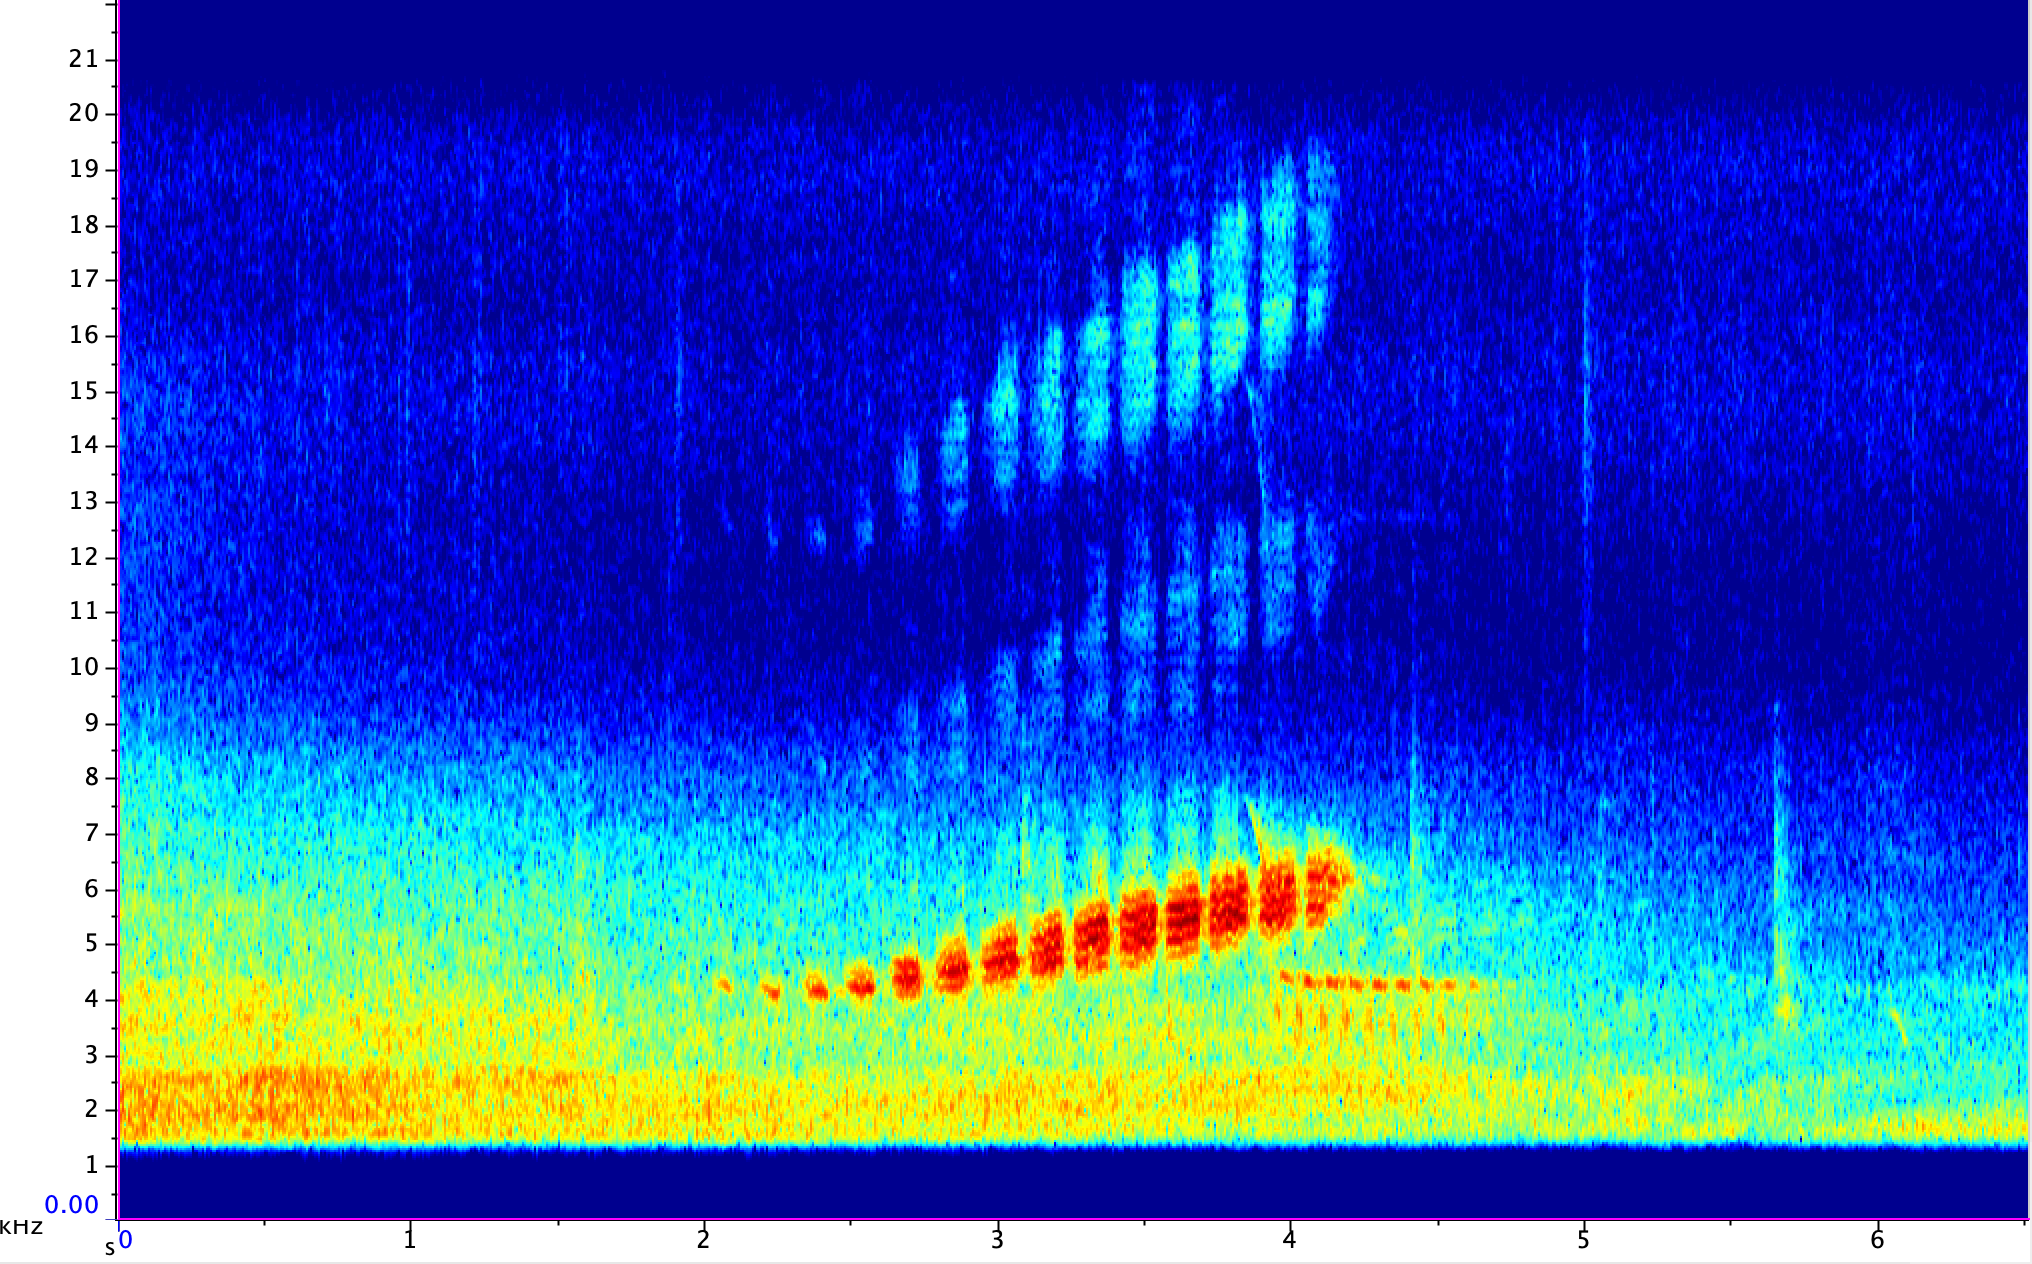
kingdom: Animalia
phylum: Chordata
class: Aves
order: Passeriformes
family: Parulidae
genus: Setophaga
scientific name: Setophaga discolor
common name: Prairie warbler
